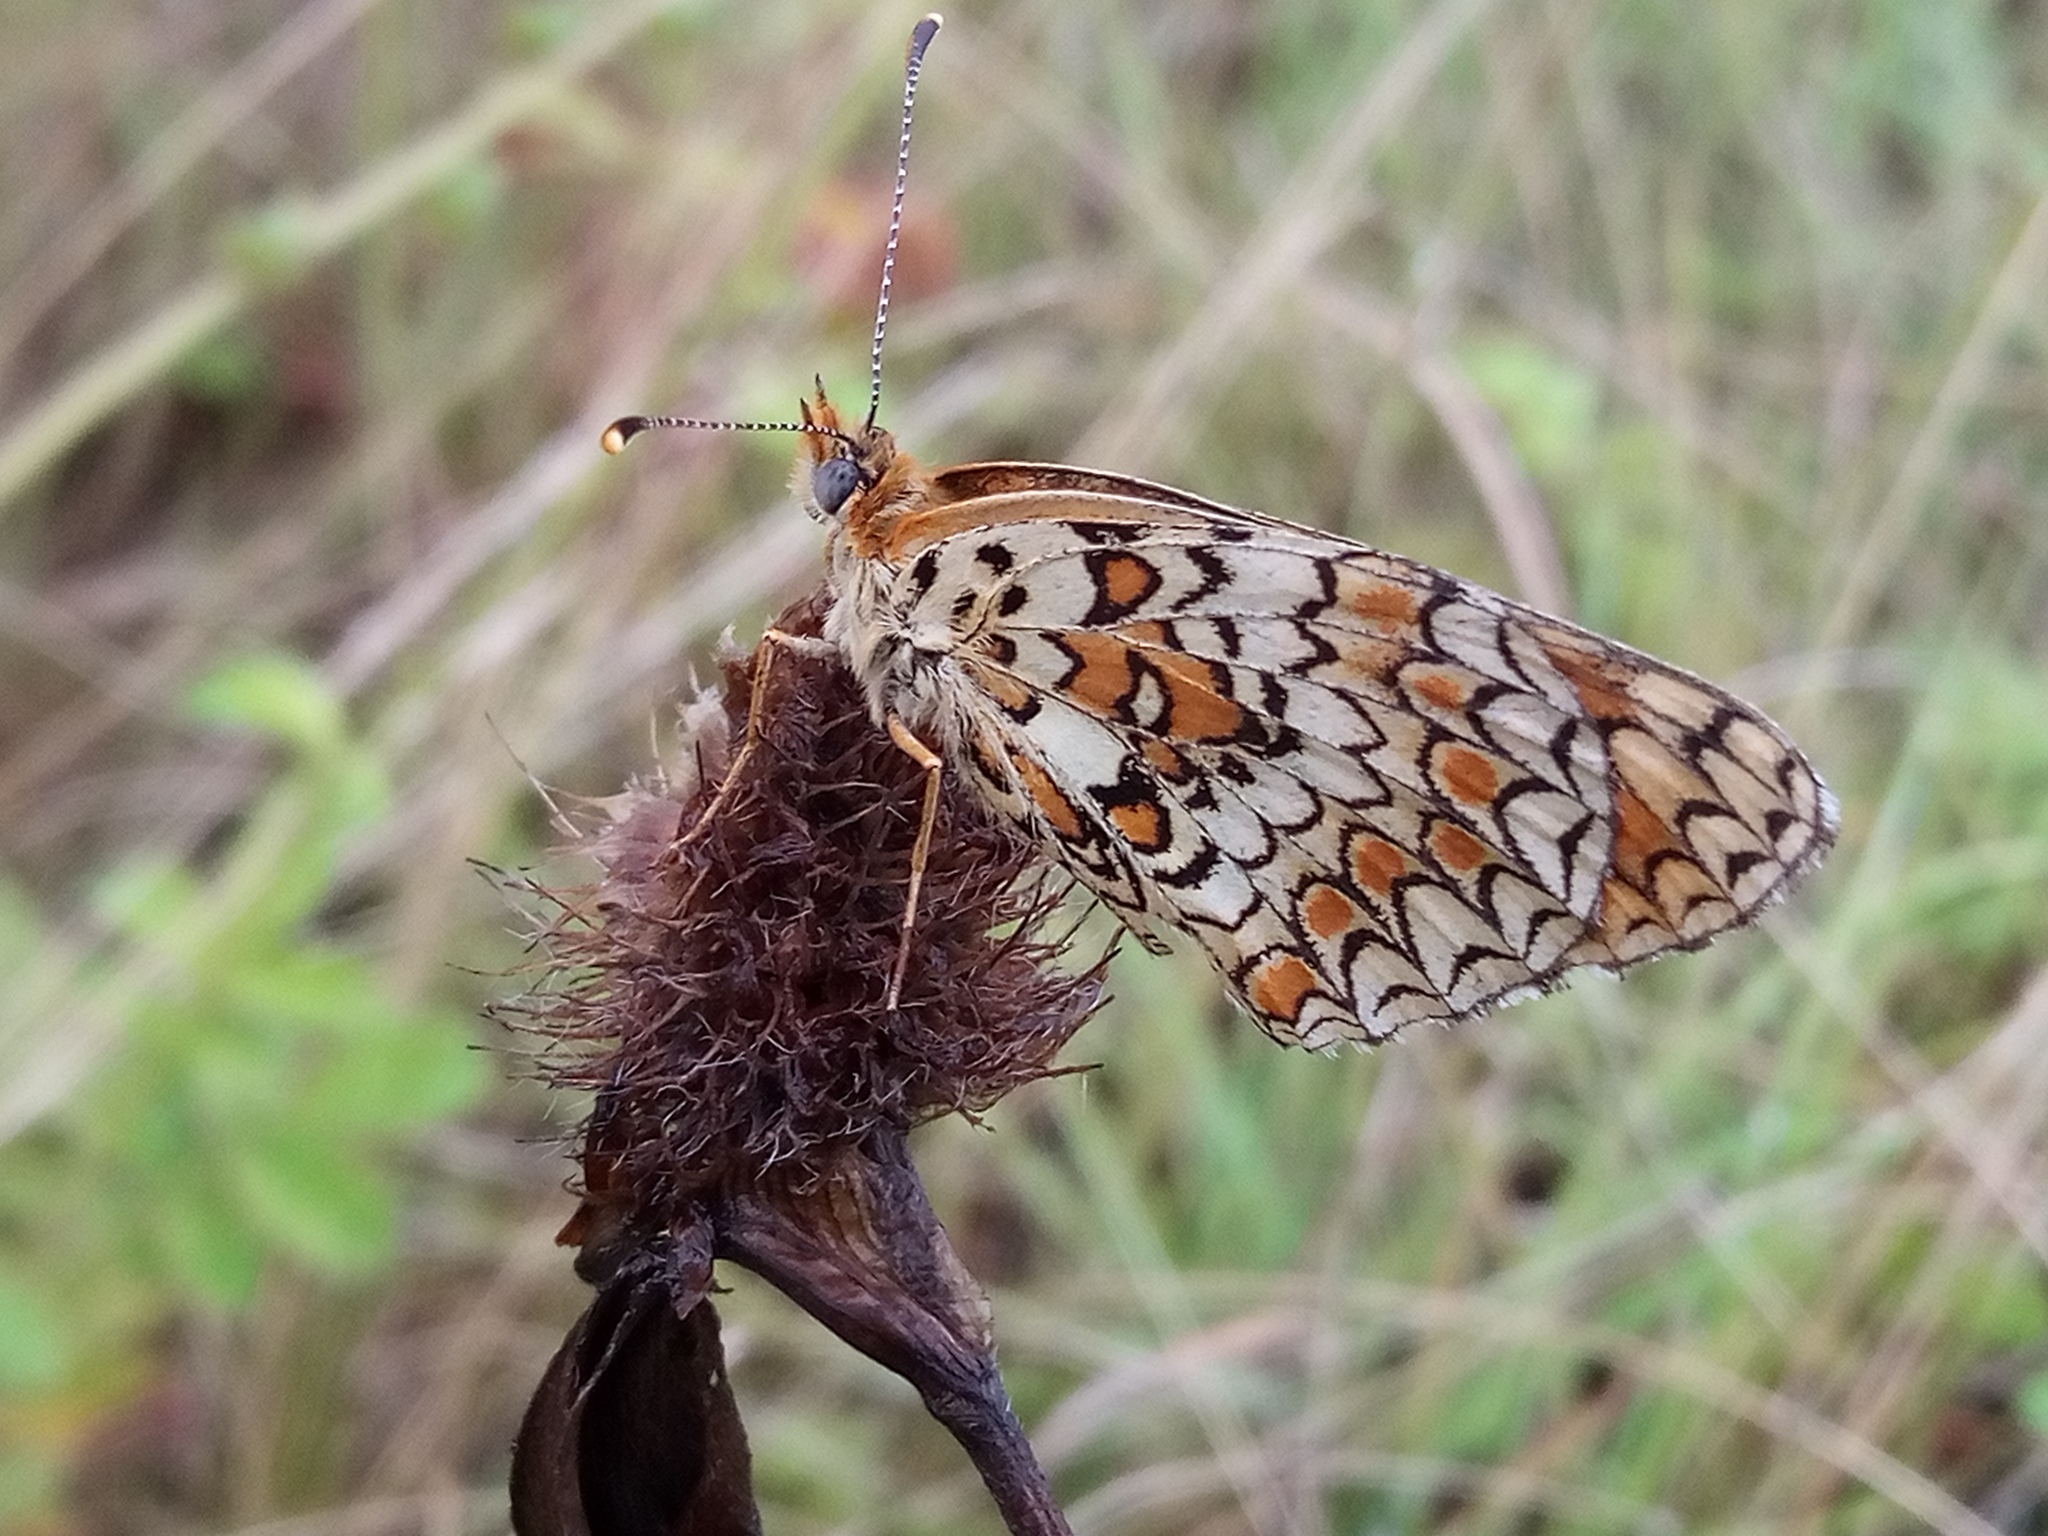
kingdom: Animalia
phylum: Arthropoda
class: Insecta
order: Lepidoptera
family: Nymphalidae
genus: Melitaea
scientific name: Melitaea phoebe
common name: Knapweed fritillary
